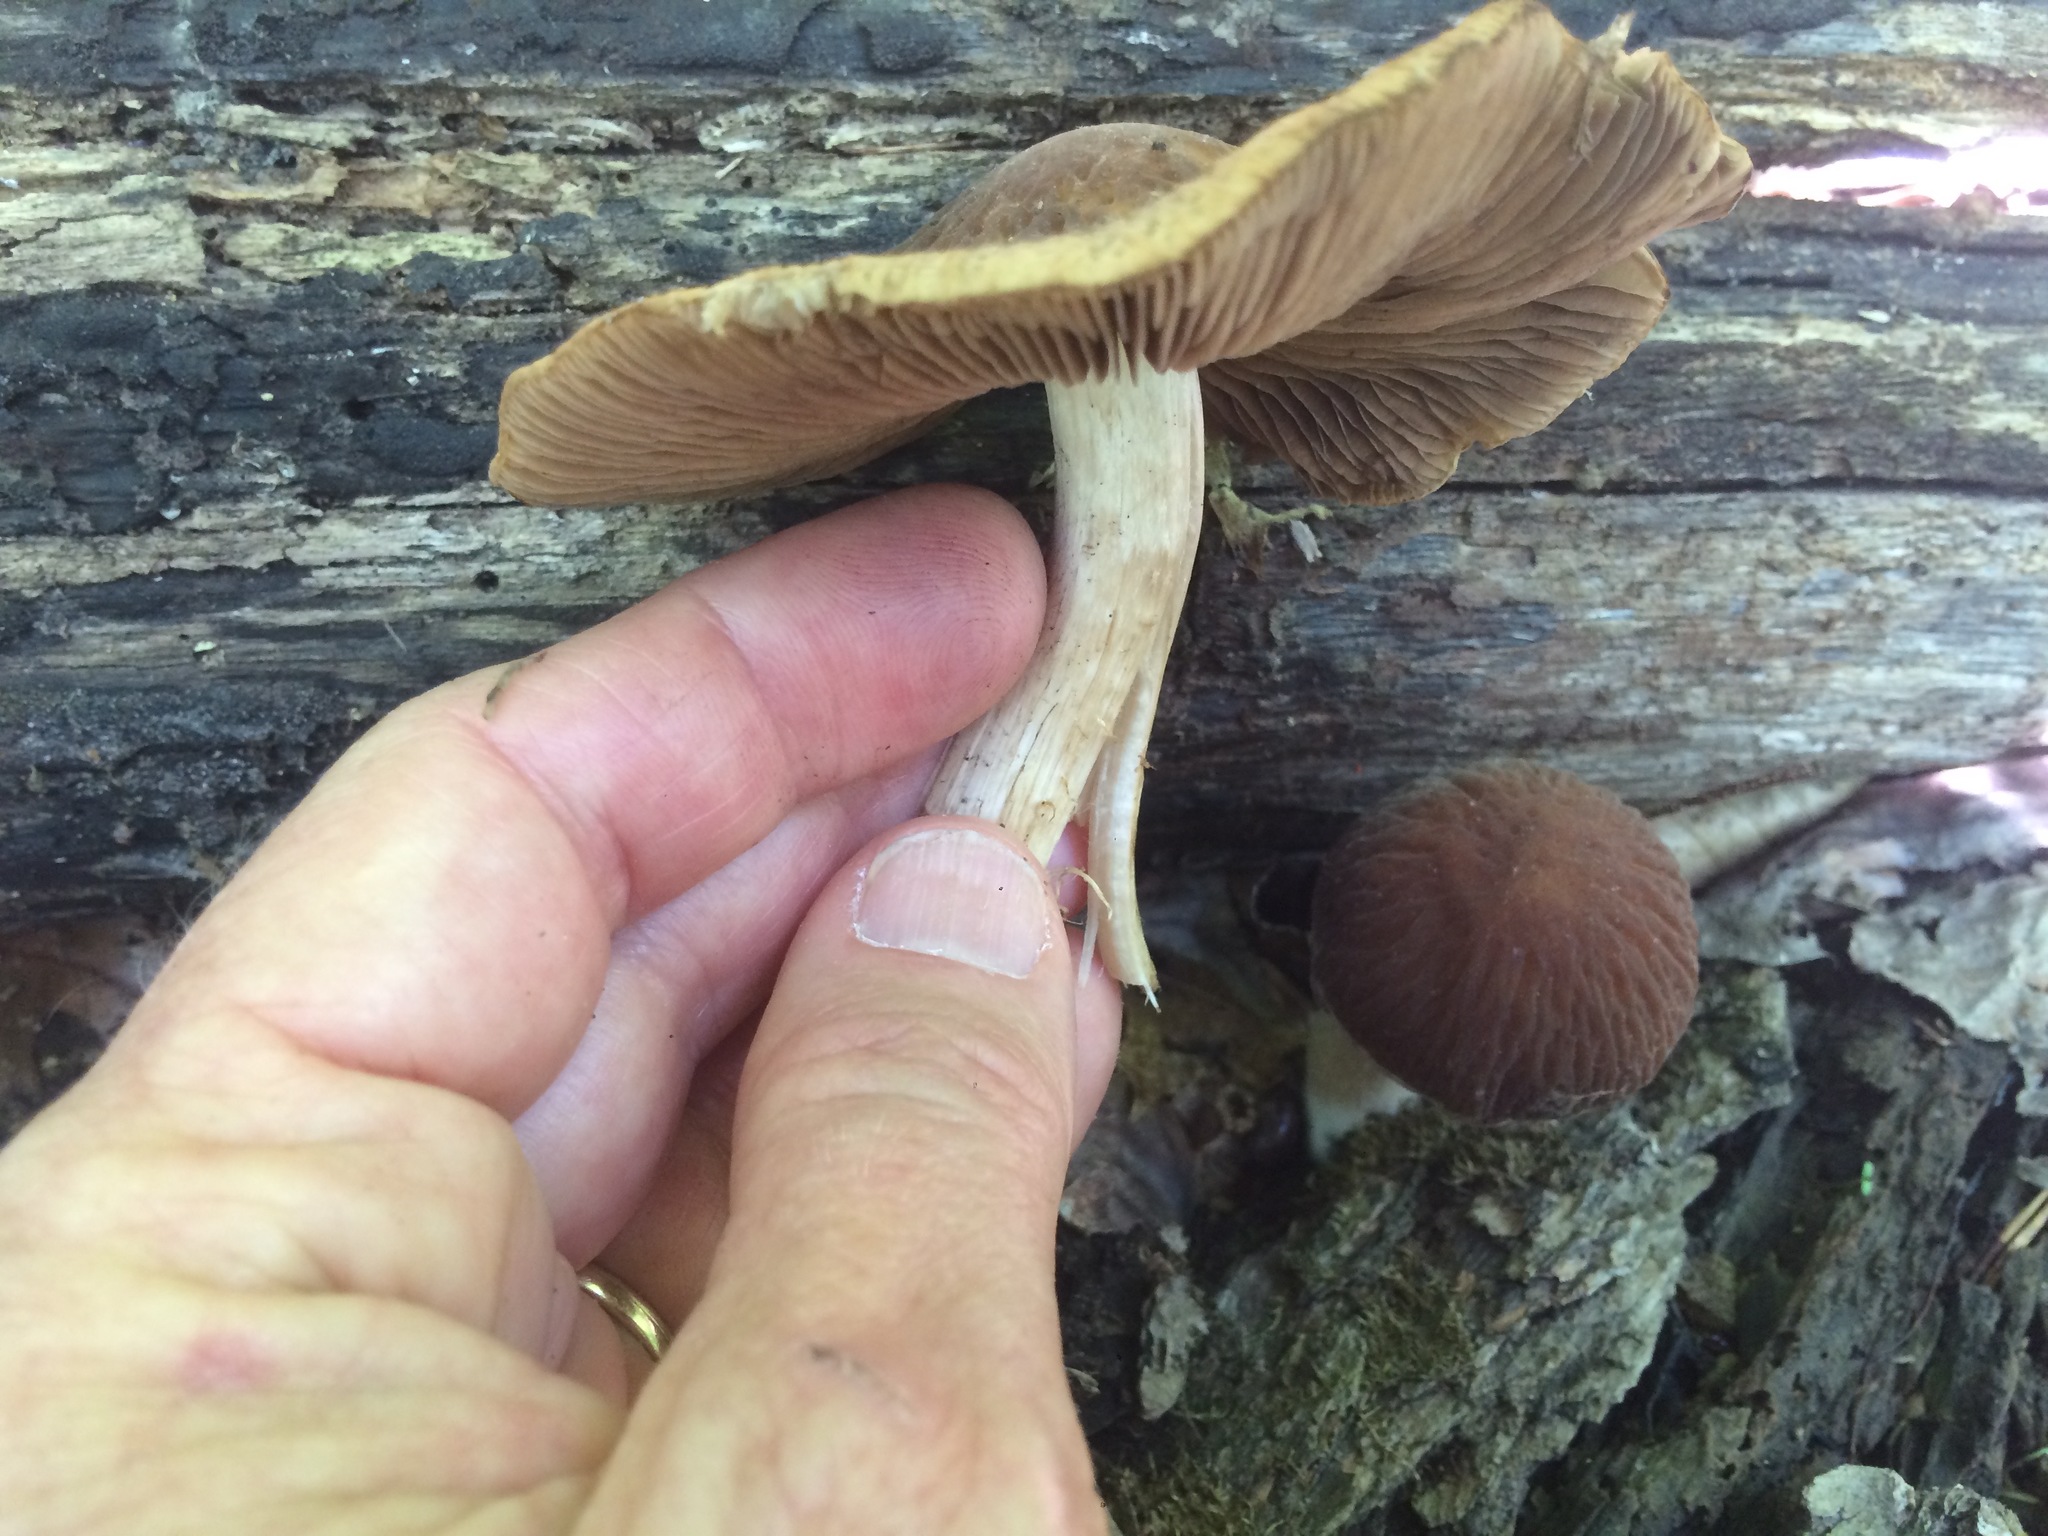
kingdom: Fungi
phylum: Basidiomycota
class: Agaricomycetes
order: Agaricales
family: Psathyrellaceae
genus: Typhrasa
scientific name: Typhrasa gossypina
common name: Wrinkled psathyrella
